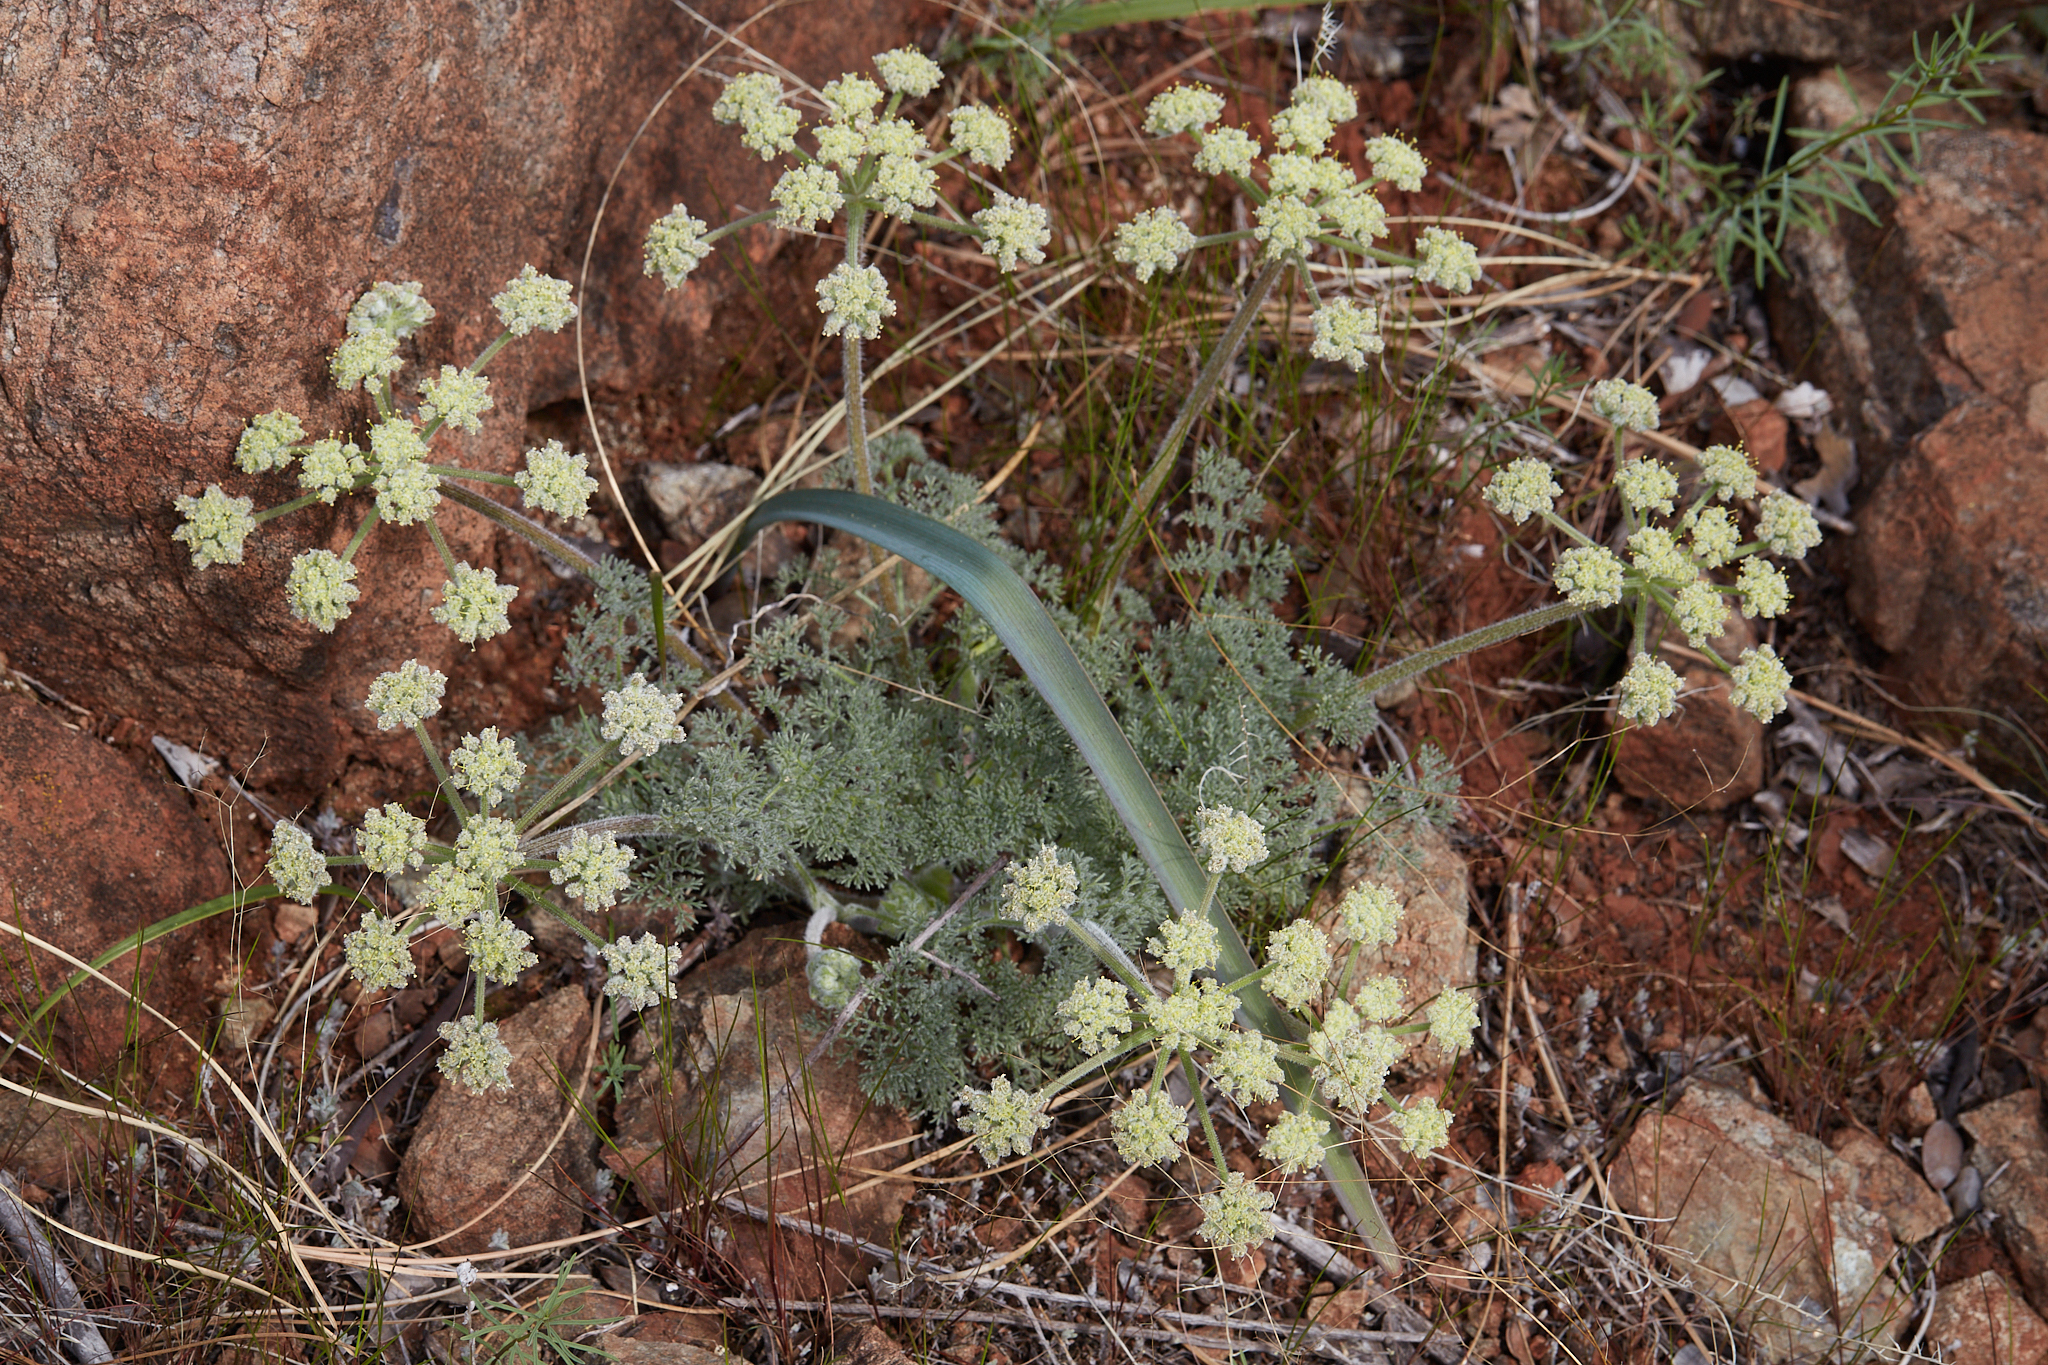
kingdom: Plantae
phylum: Tracheophyta
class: Magnoliopsida
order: Apiales
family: Apiaceae
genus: Lomatium
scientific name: Lomatium dasycarpum
